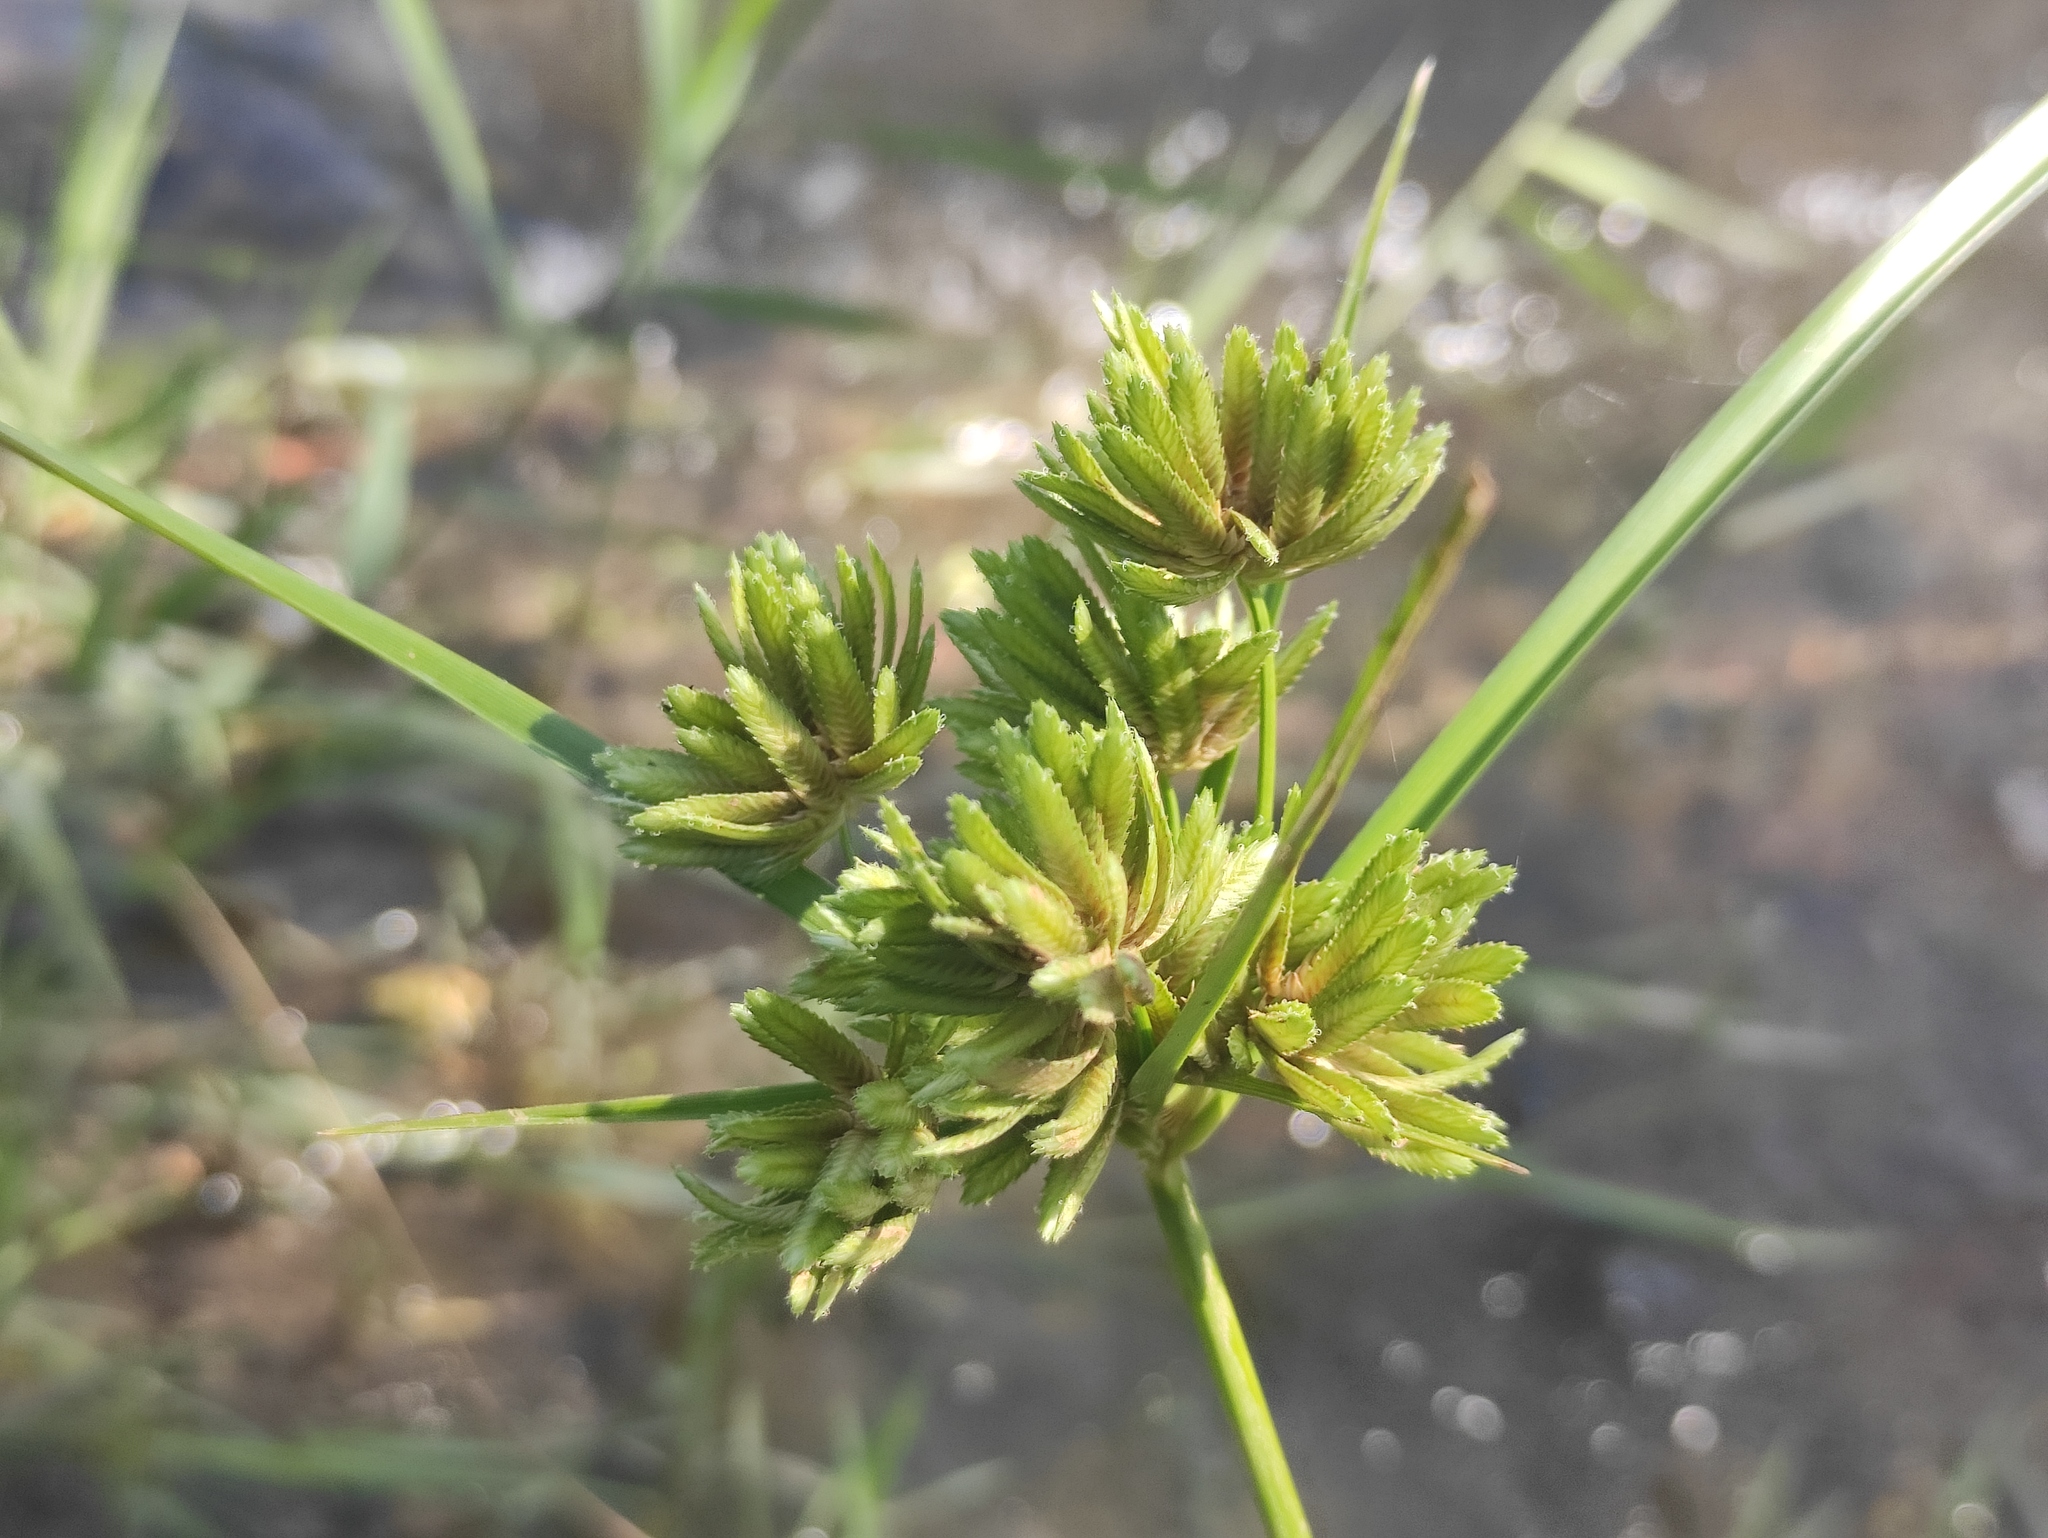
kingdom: Plantae
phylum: Tracheophyta
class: Liliopsida
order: Poales
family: Cyperaceae
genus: Cyperus
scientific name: Cyperus eragrostis
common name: Tall flatsedge
